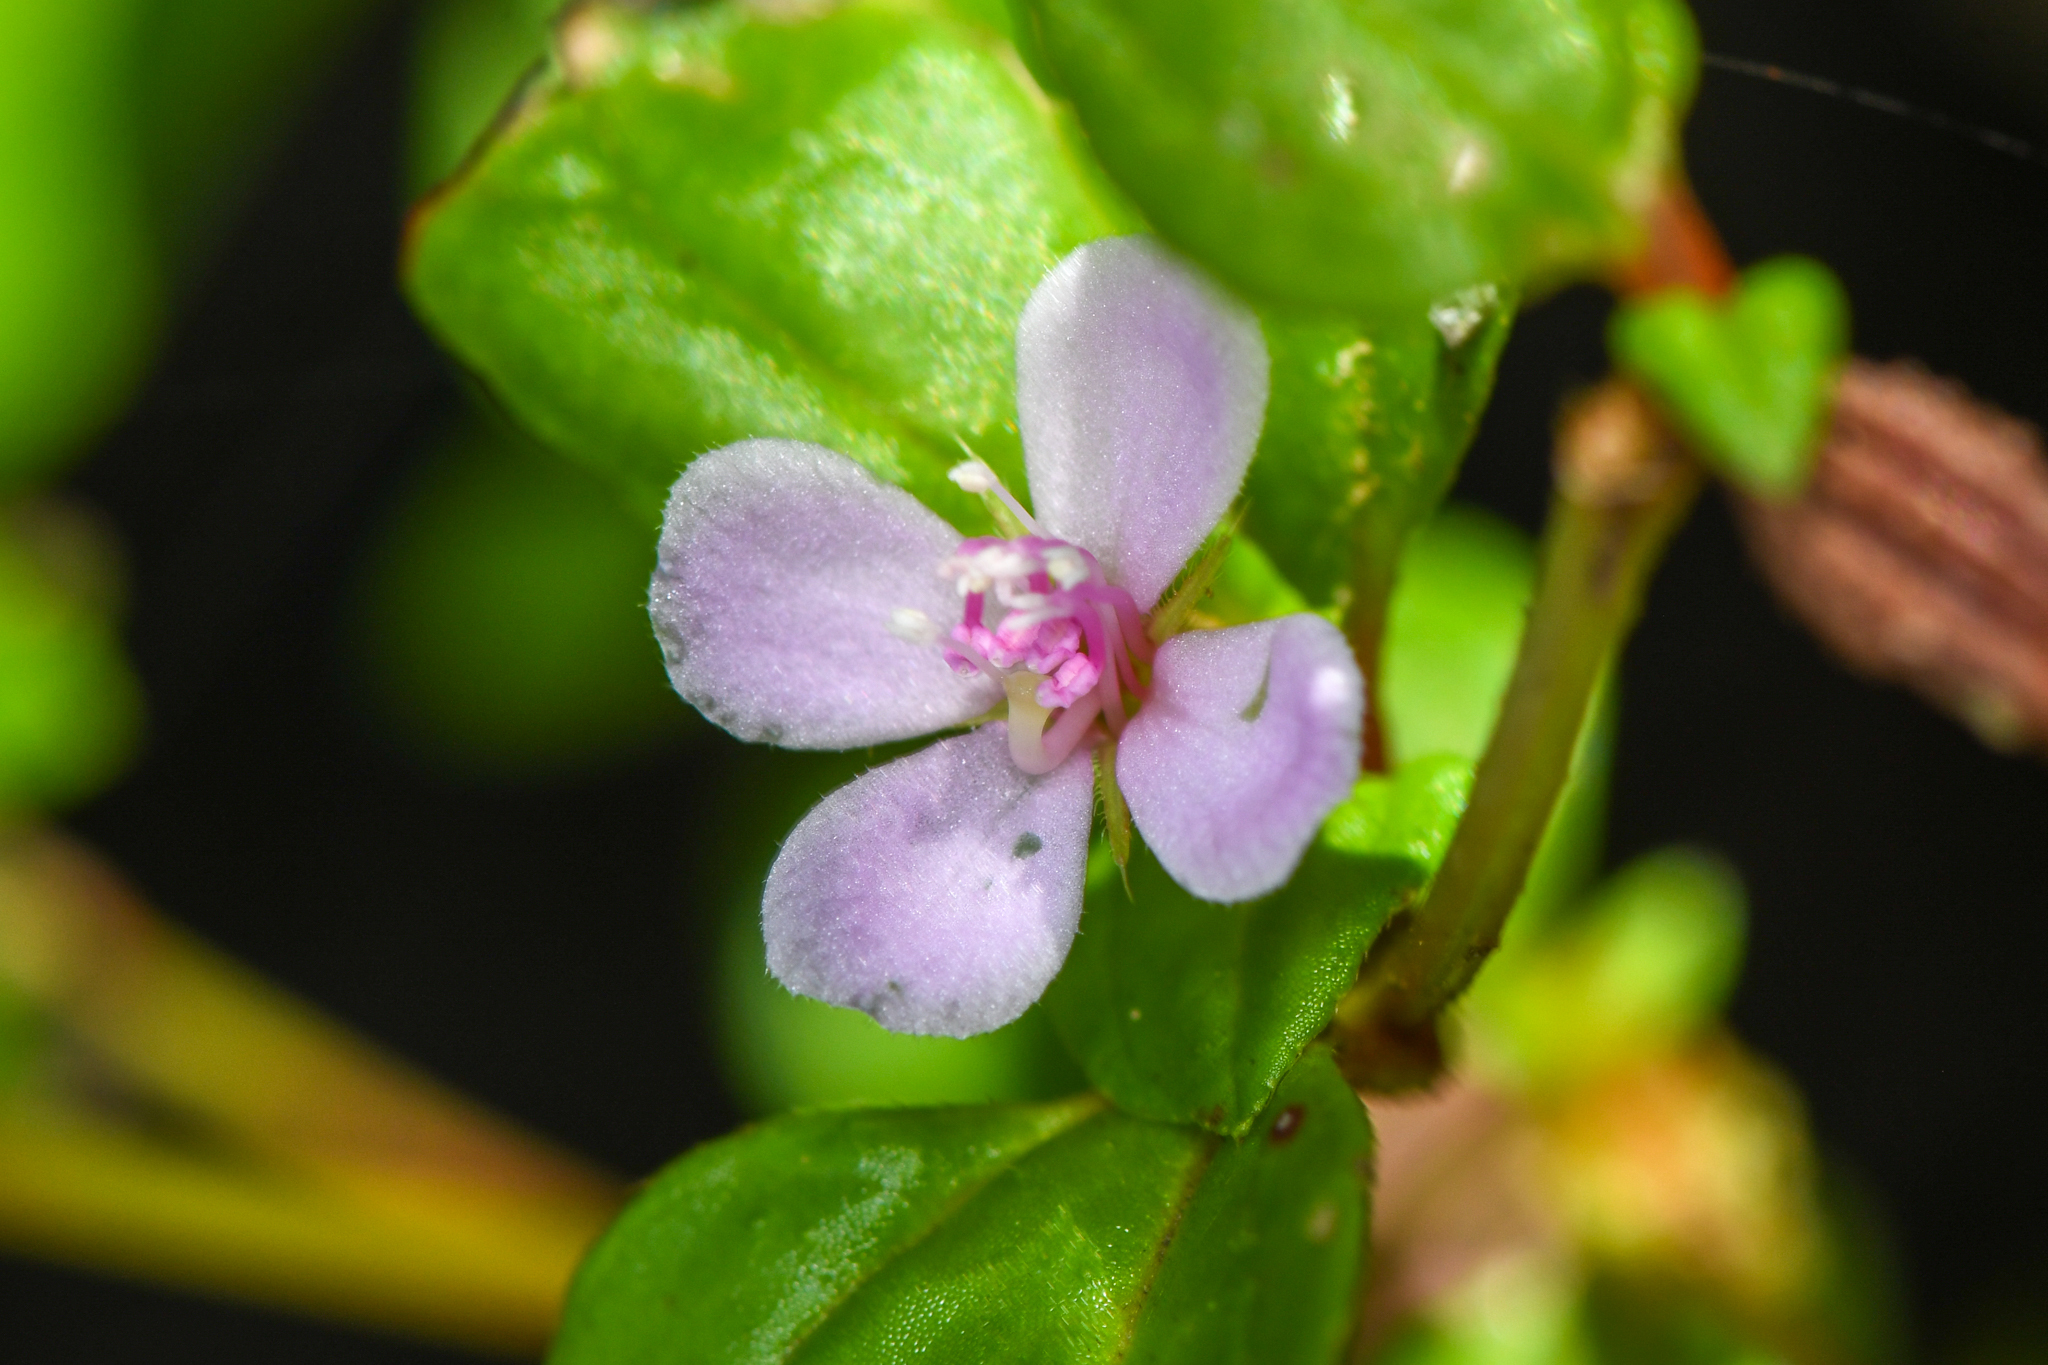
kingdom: Plantae
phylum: Tracheophyta
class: Magnoliopsida
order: Myrtales
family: Melastomataceae
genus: Schwackaea
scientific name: Schwackaea cupheoides
